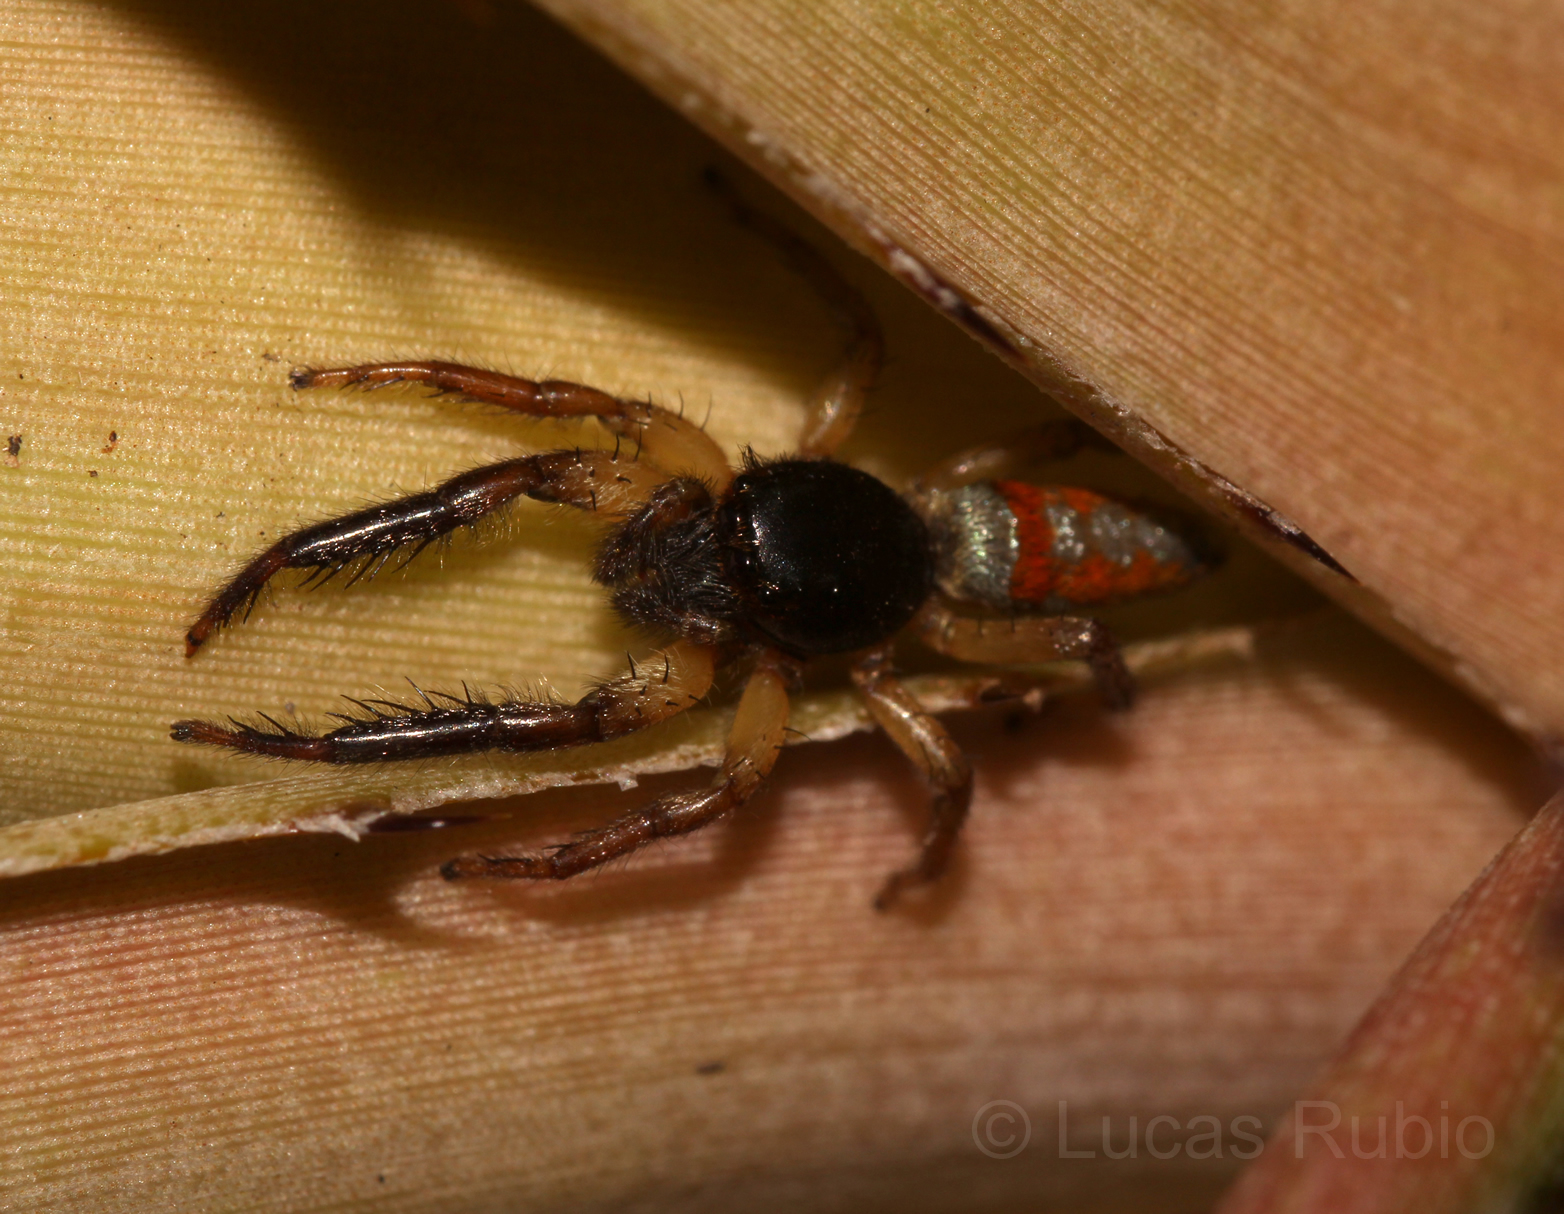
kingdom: Animalia
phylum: Arthropoda
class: Arachnida
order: Araneae
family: Salticidae
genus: Psecas
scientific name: Psecas chapoda
